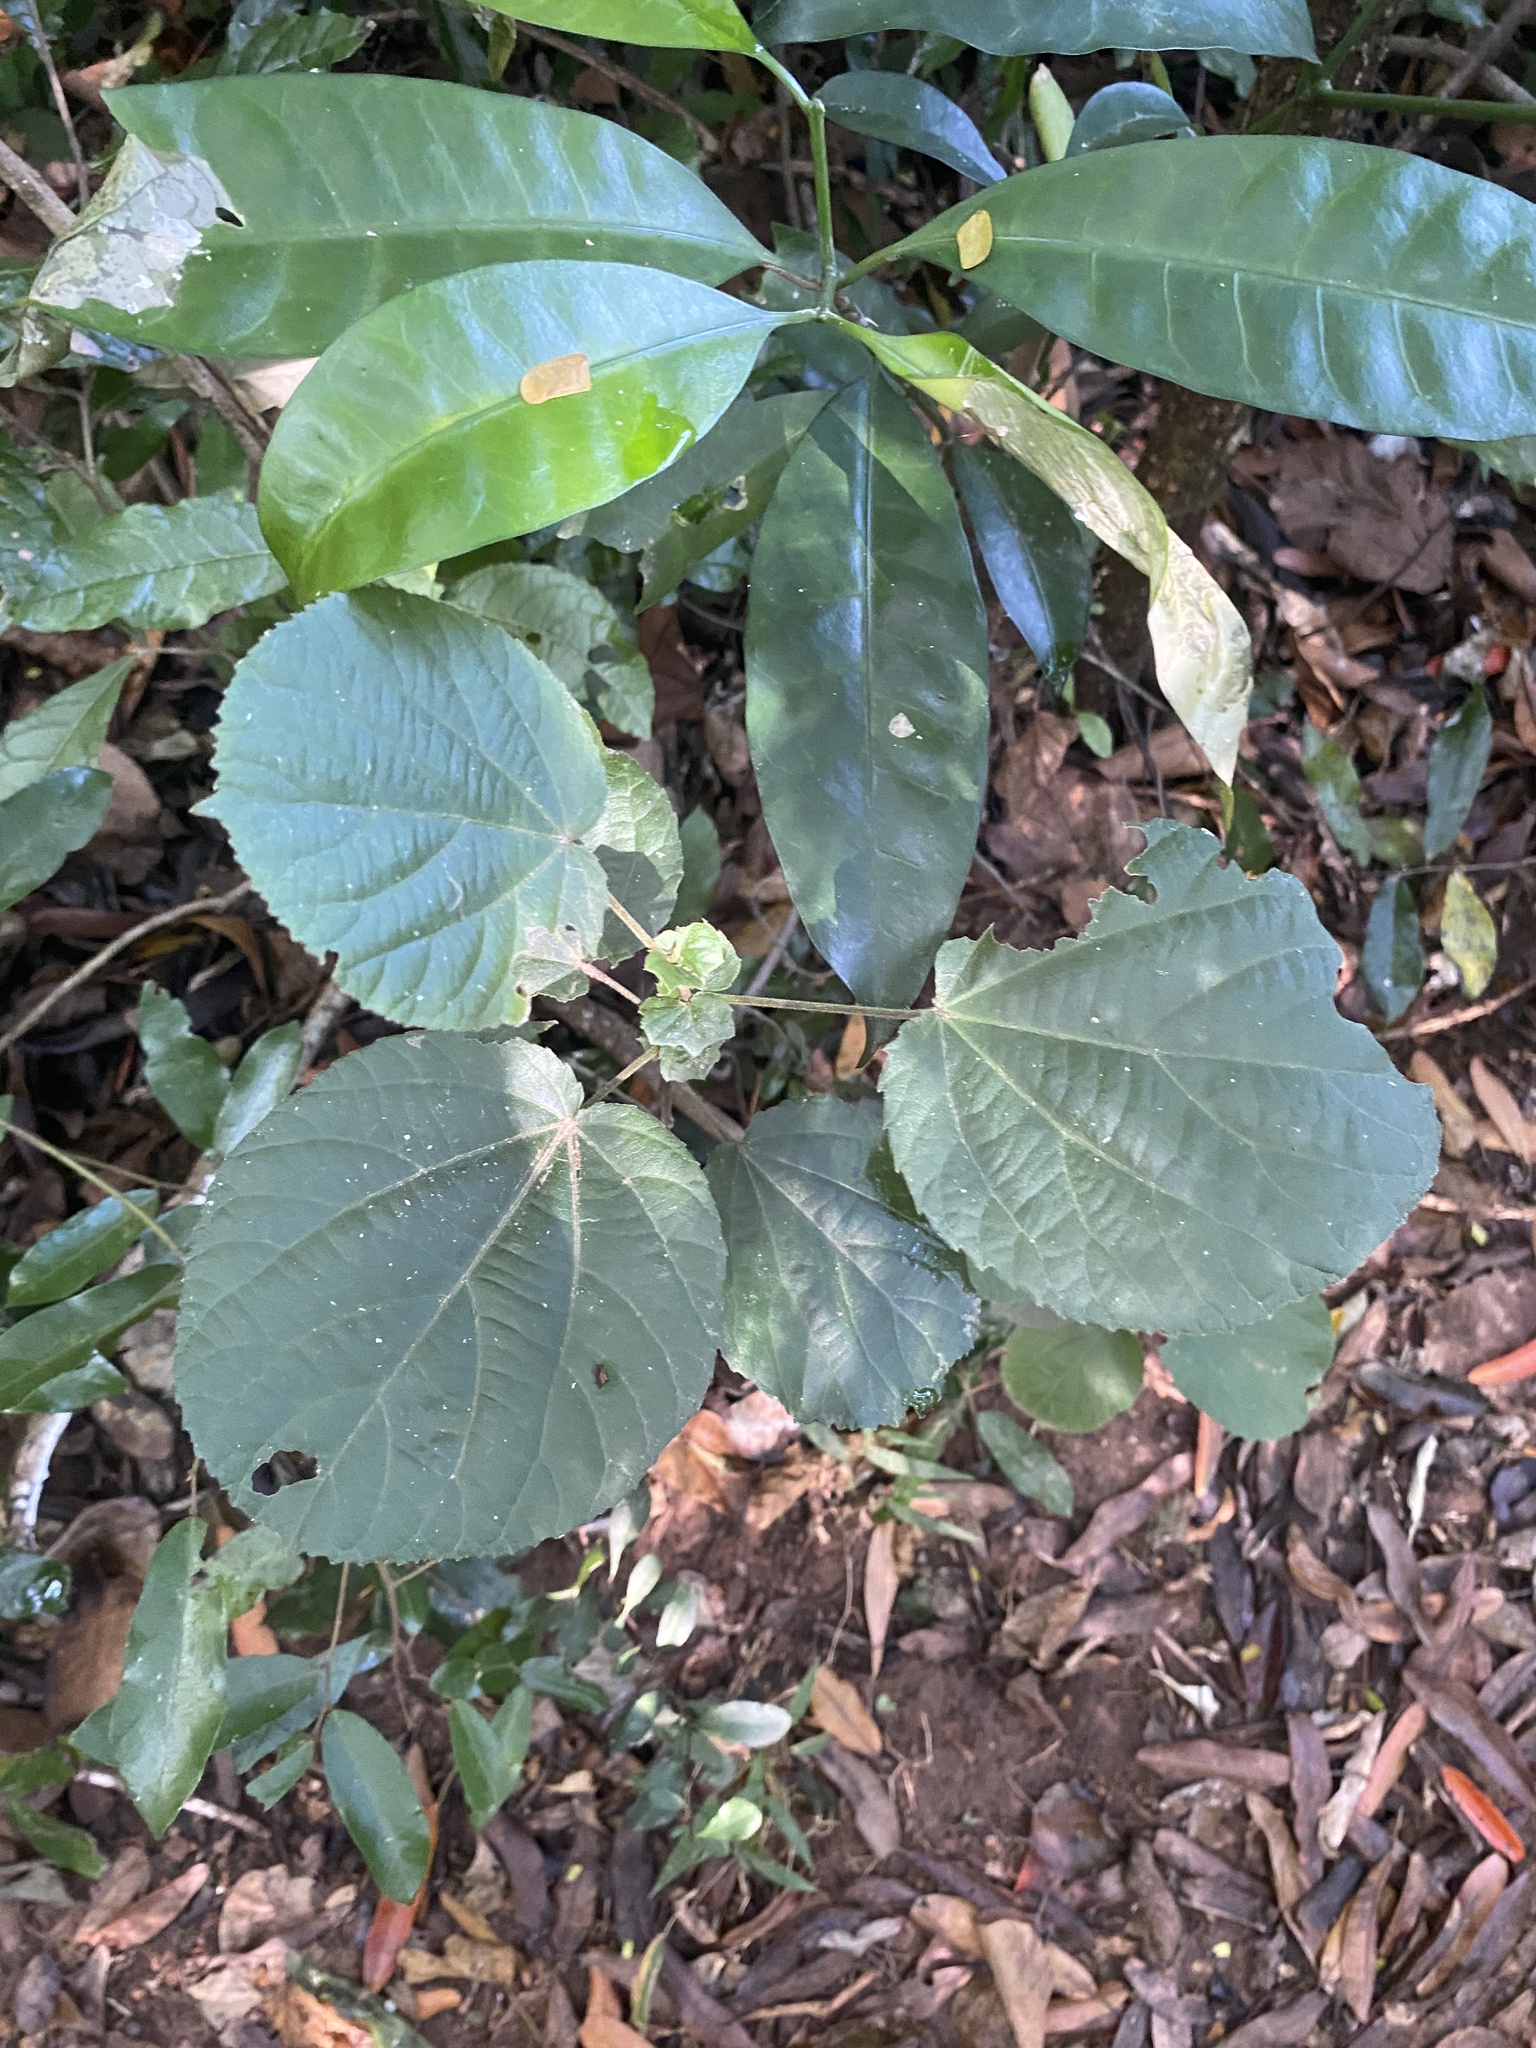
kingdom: Plantae
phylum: Tracheophyta
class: Magnoliopsida
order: Malpighiales
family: Salicaceae
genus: Trimeria
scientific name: Trimeria grandifolia
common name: Wild mulberry
